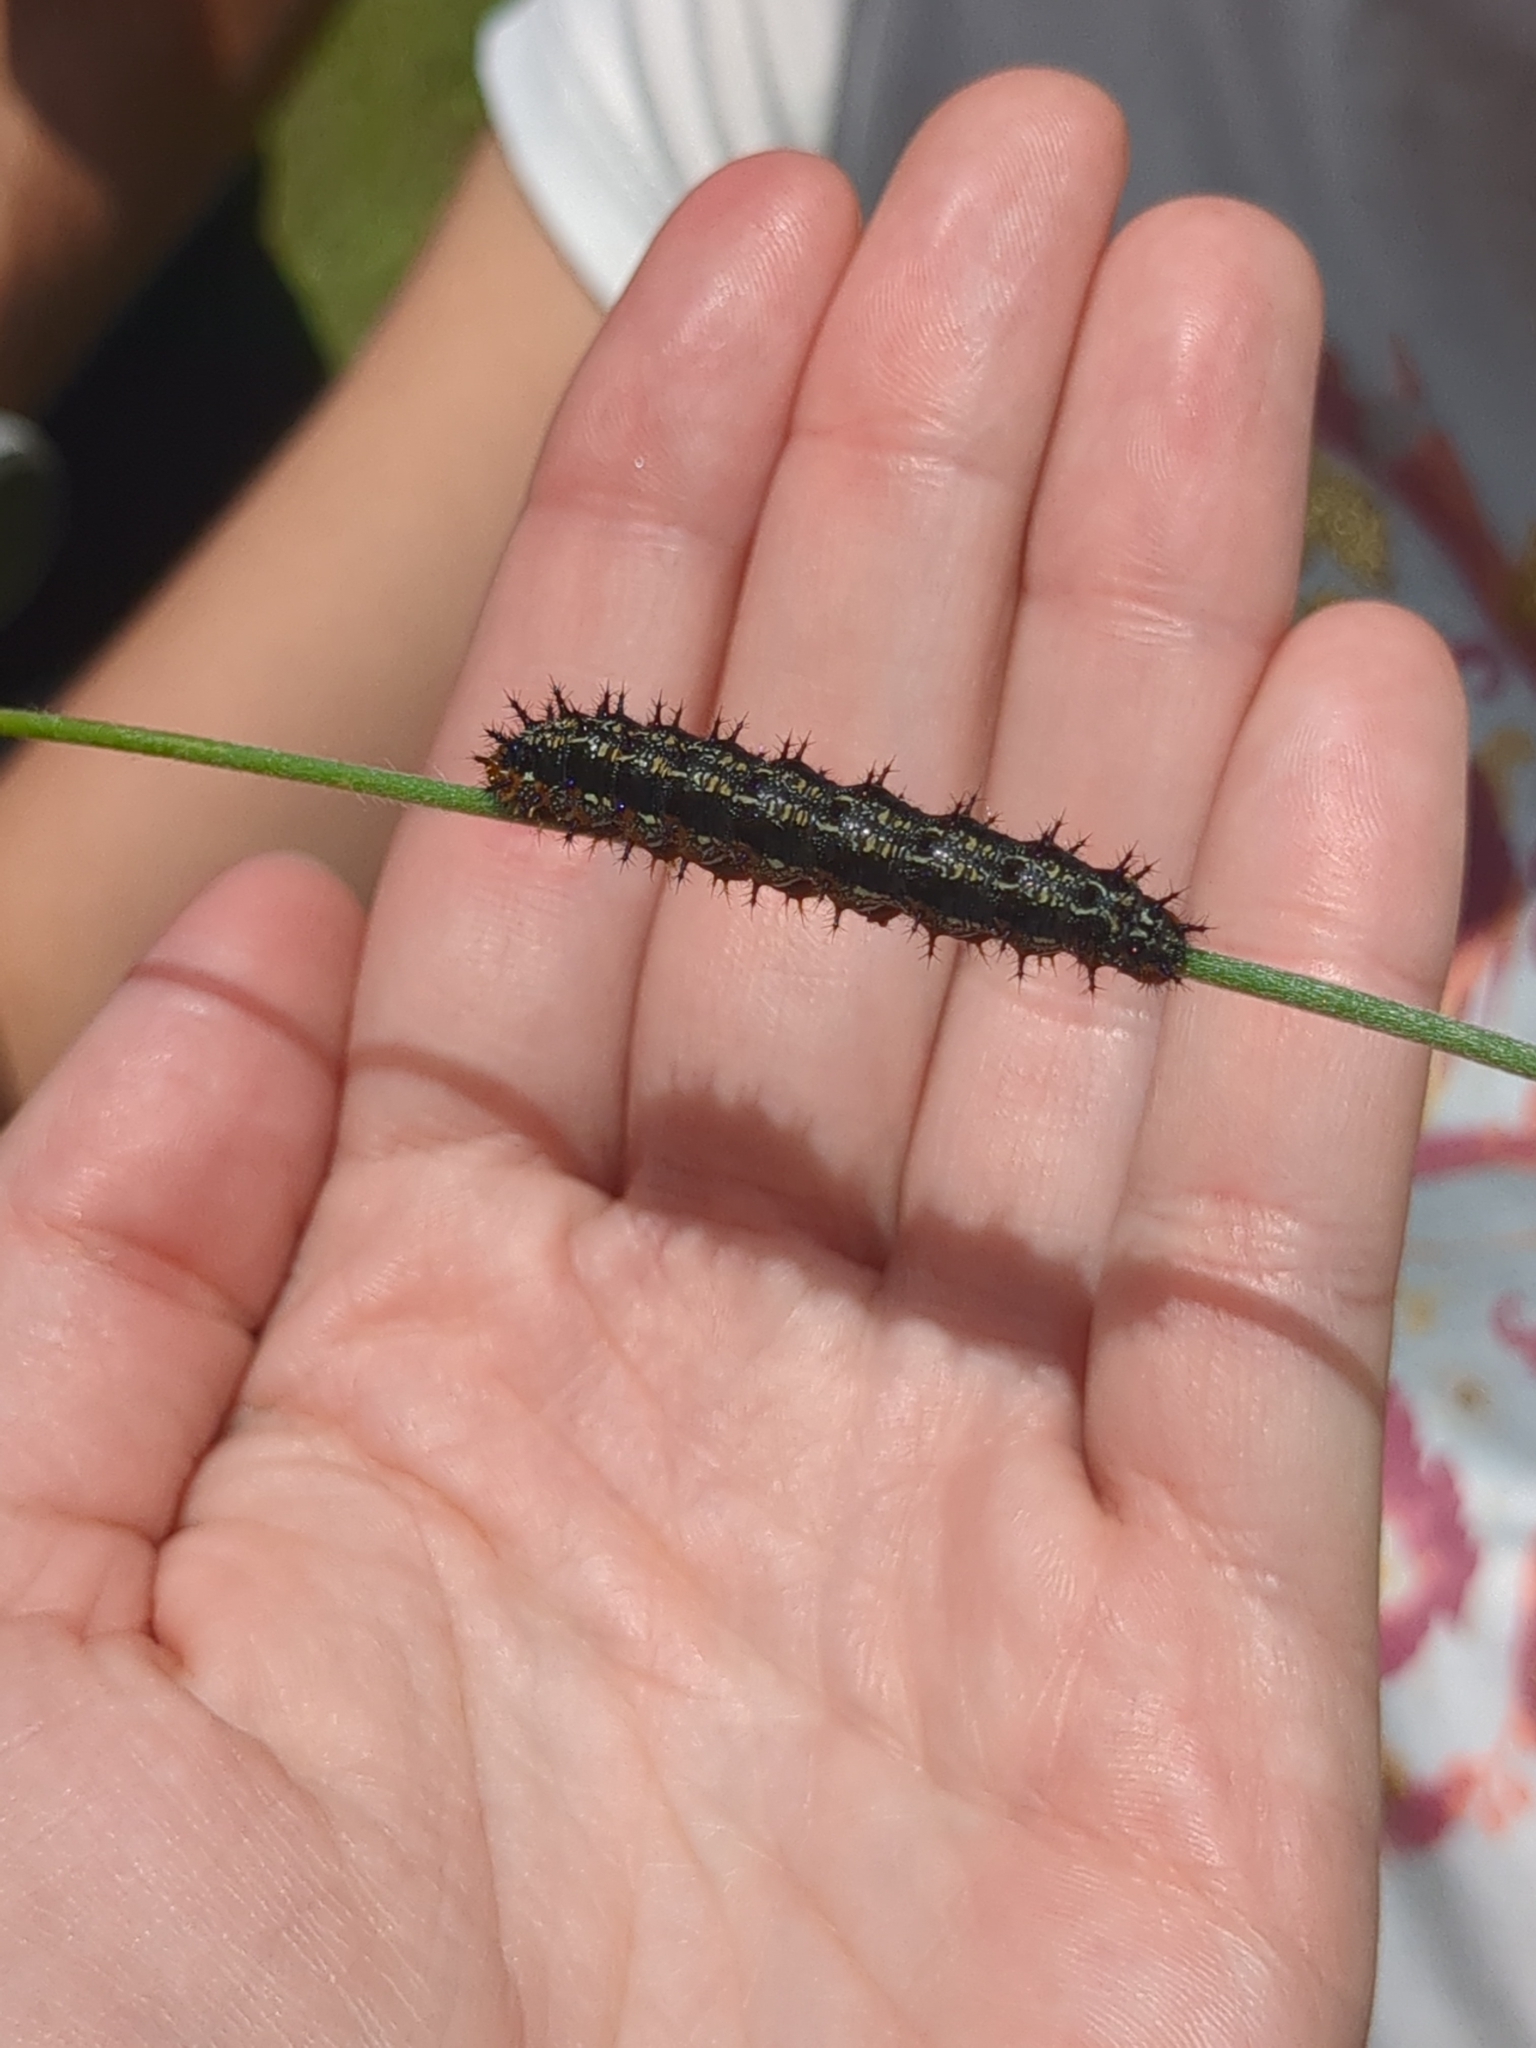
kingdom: Animalia
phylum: Arthropoda
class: Insecta
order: Lepidoptera
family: Nymphalidae
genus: Junonia
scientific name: Junonia coenia
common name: Common buckeye
